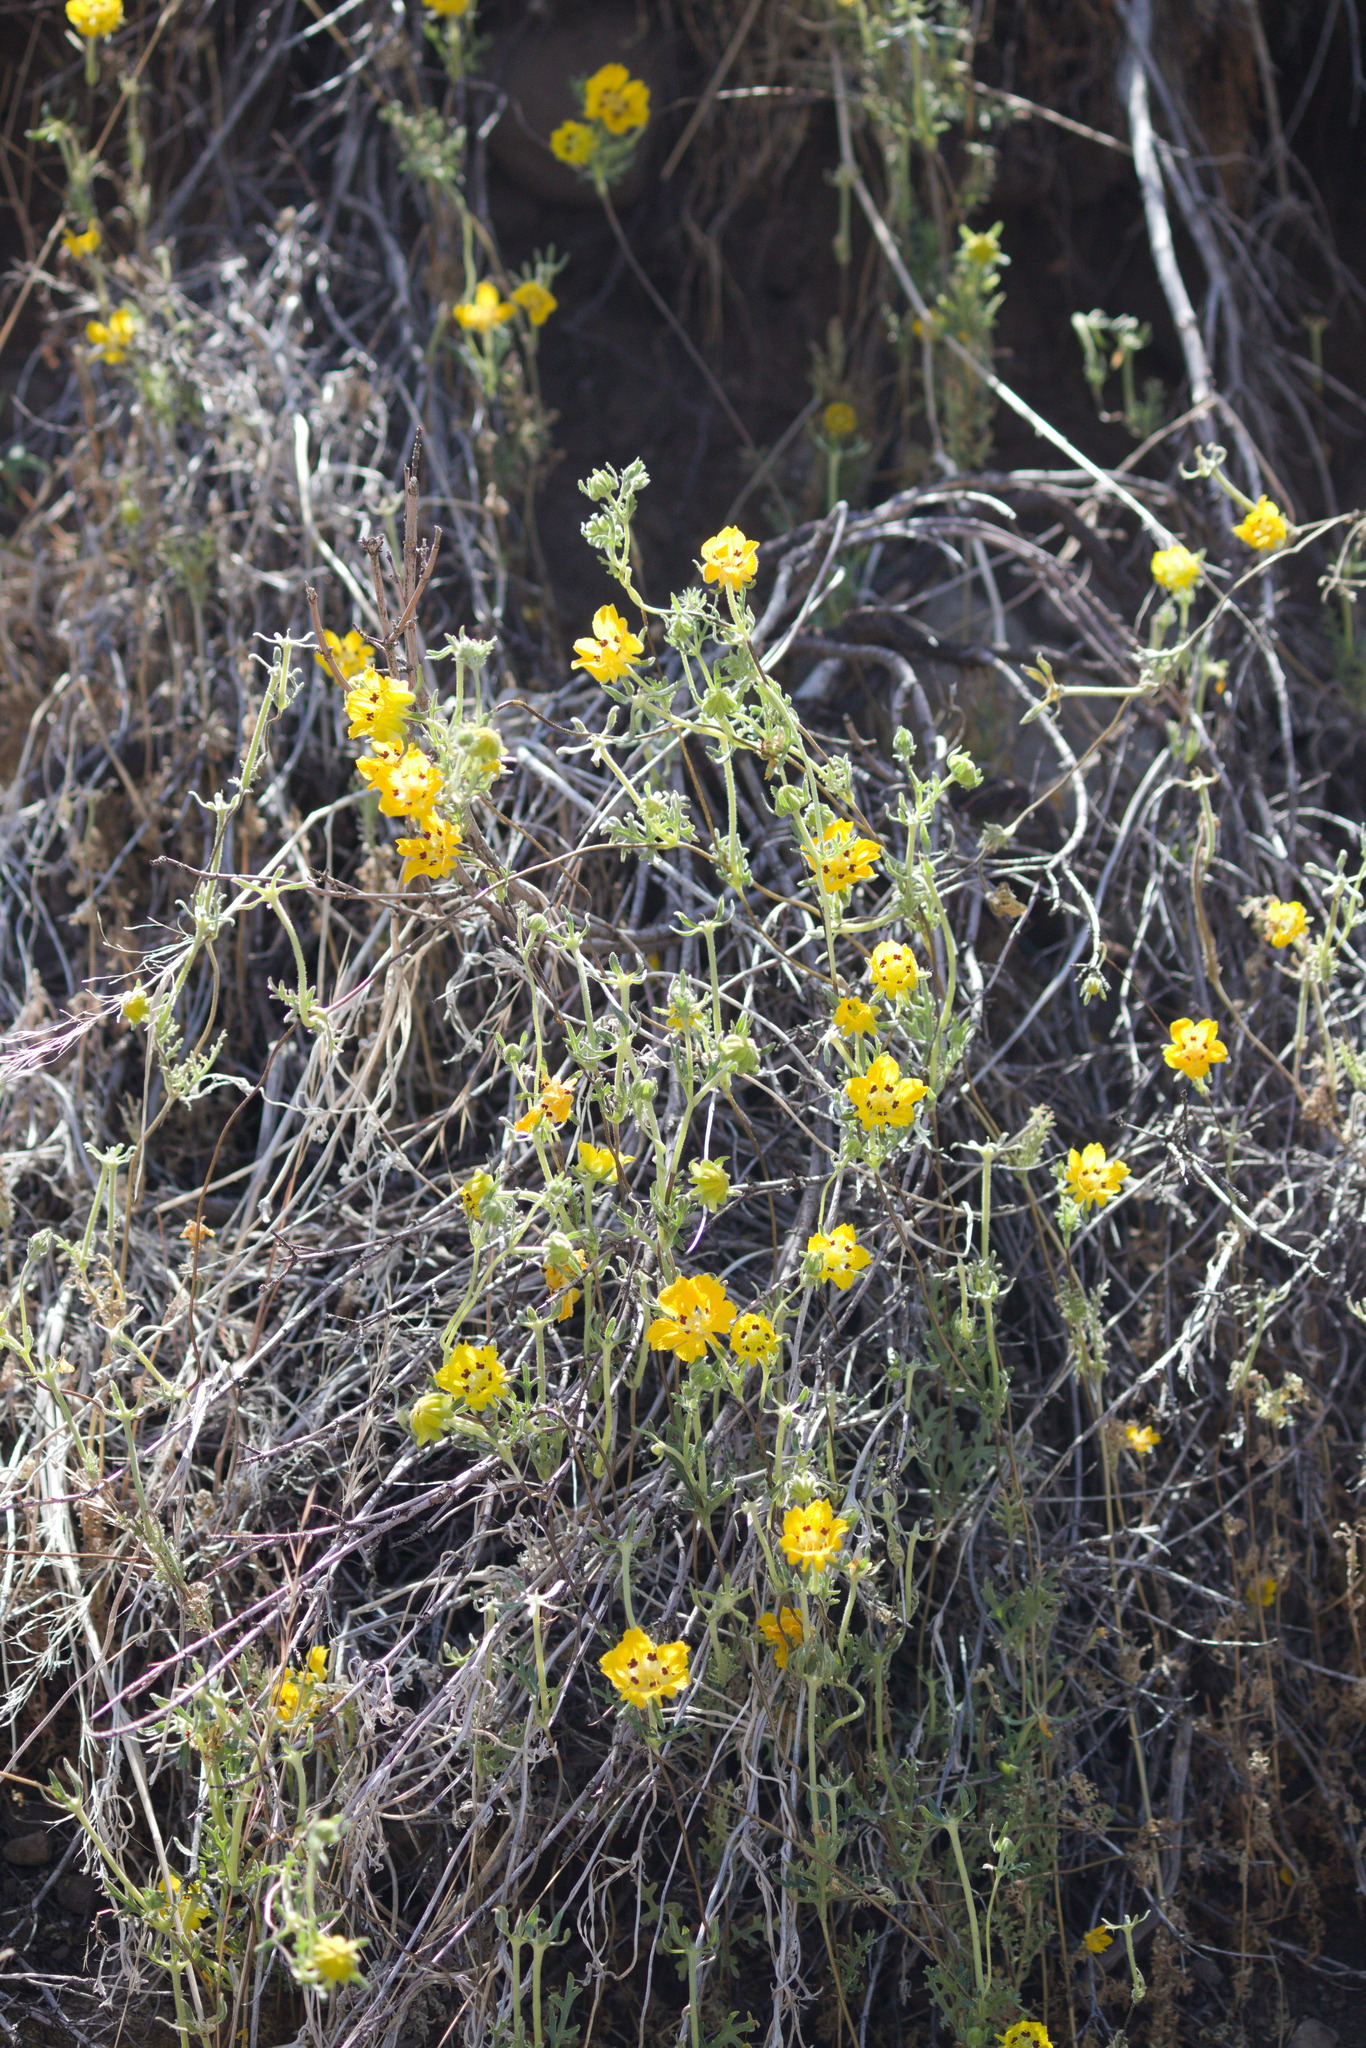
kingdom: Plantae
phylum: Tracheophyta
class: Magnoliopsida
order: Cornales
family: Loasaceae
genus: Scyphanthus
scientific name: Scyphanthus elegans
